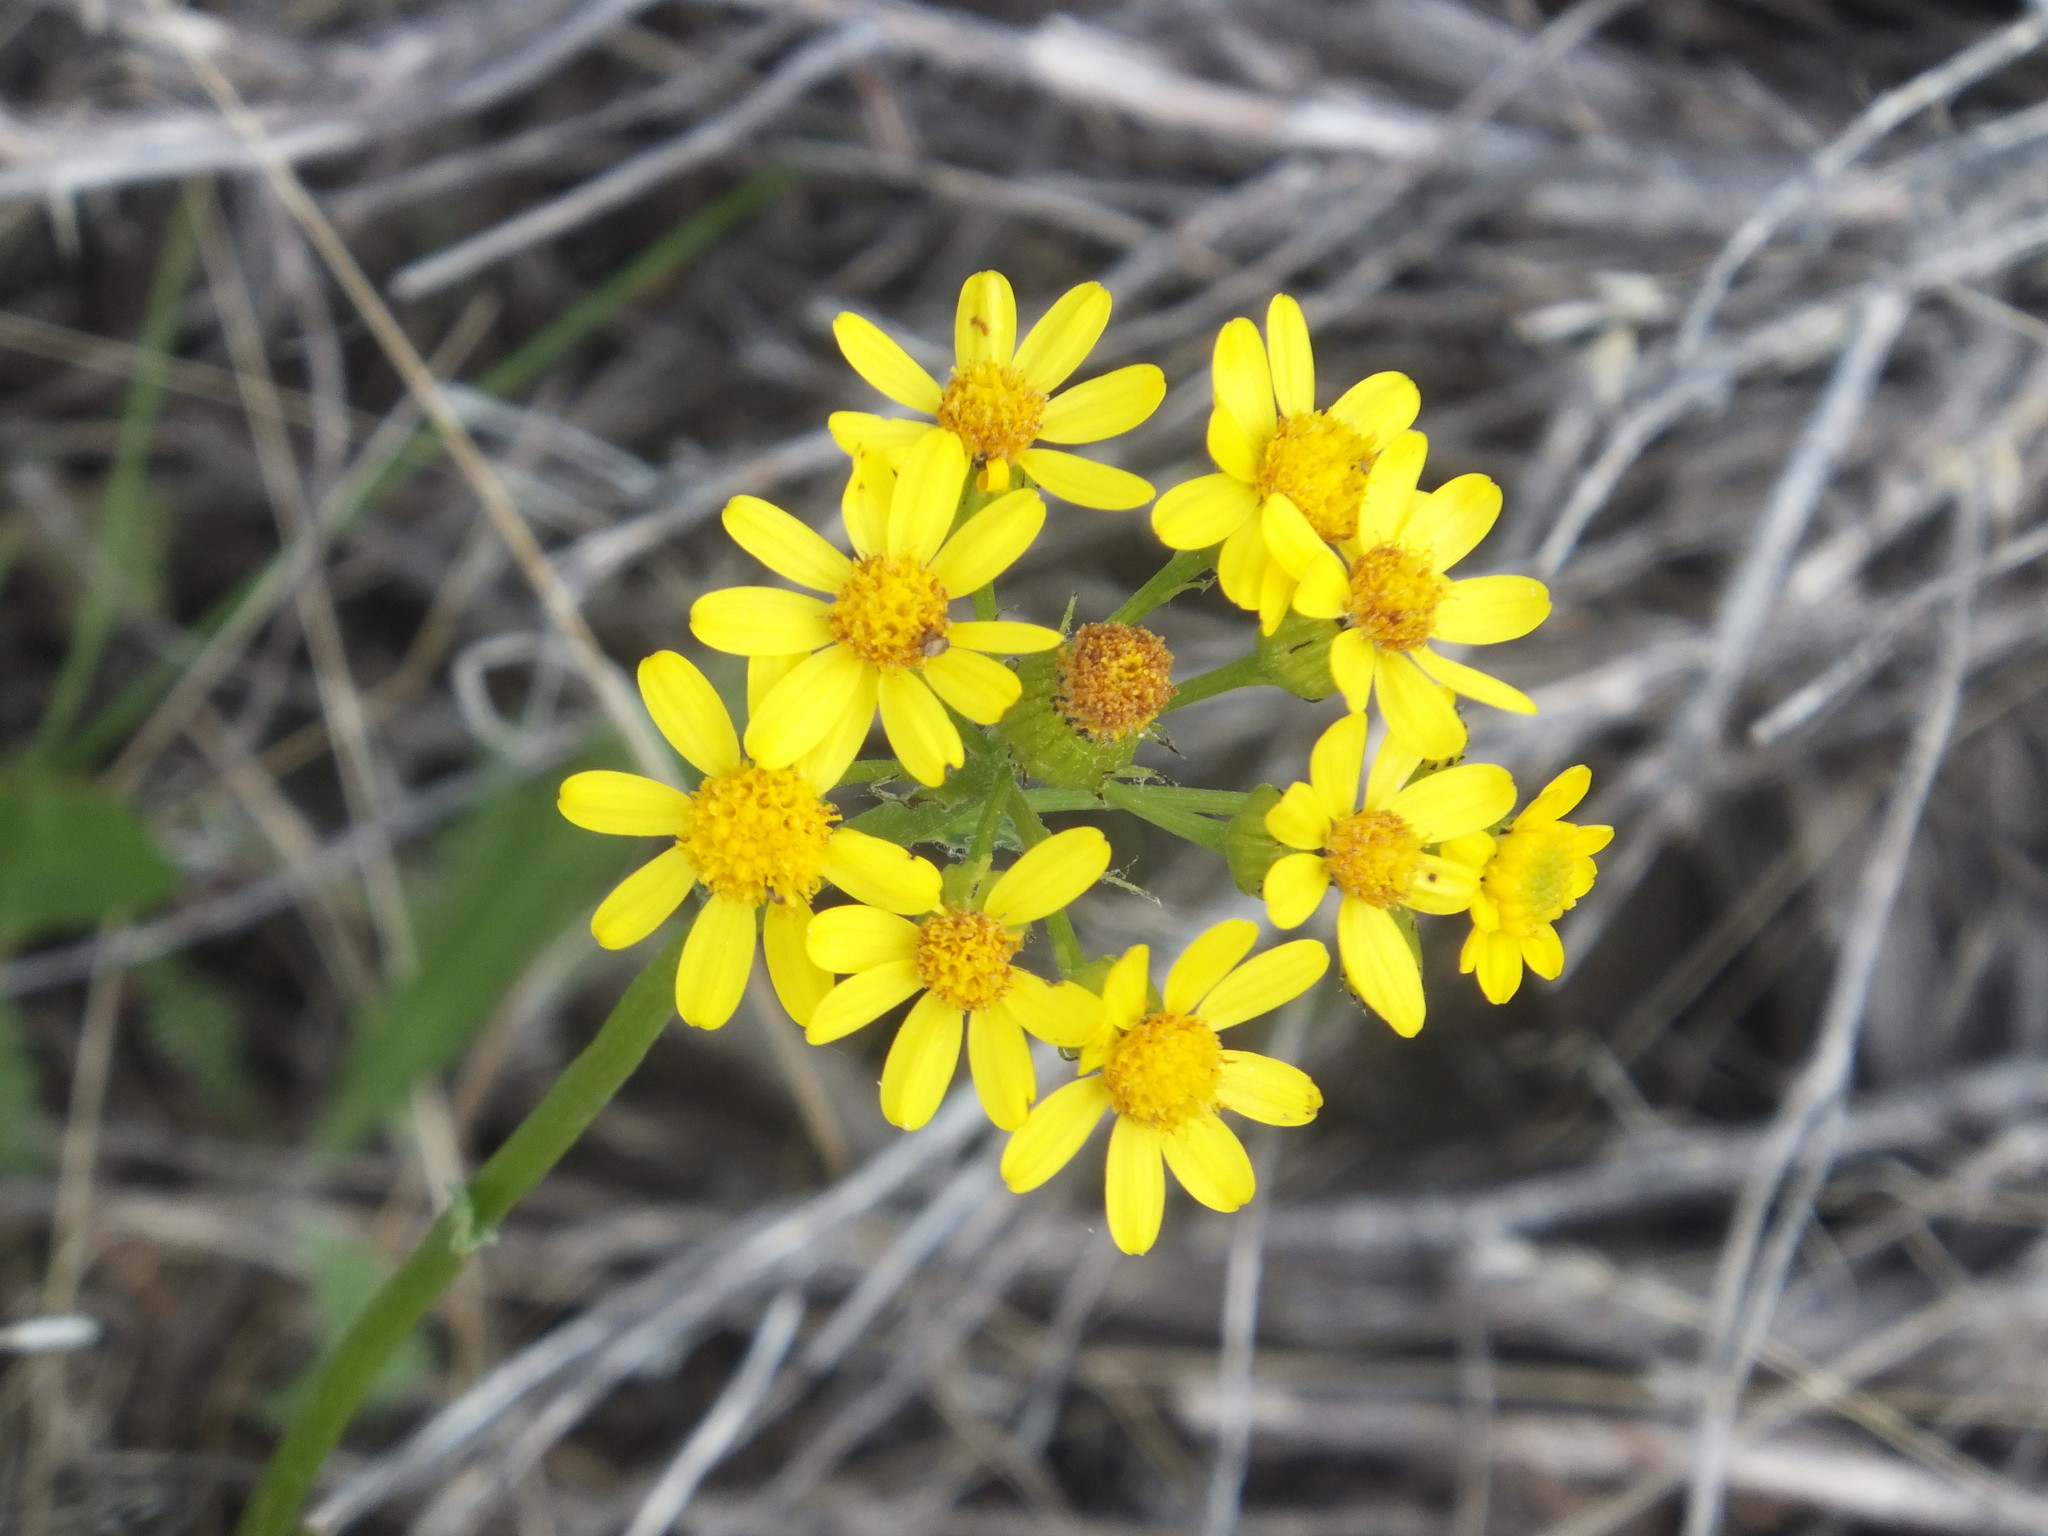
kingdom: Plantae
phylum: Tracheophyta
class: Magnoliopsida
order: Asterales
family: Asteraceae
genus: Senecio
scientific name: Senecio integerrimus
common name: Gaugeplant
